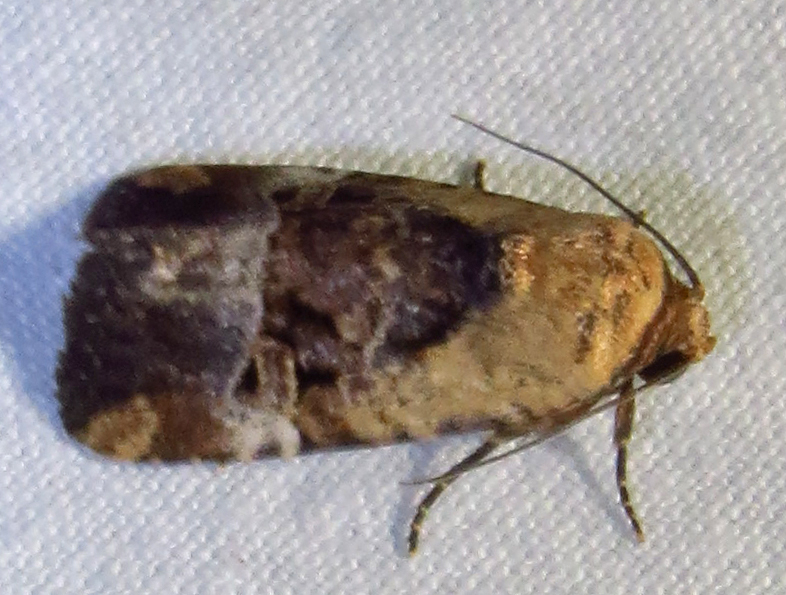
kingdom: Animalia
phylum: Arthropoda
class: Insecta
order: Lepidoptera
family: Noctuidae
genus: Elaphria
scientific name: Elaphria chalcedonia
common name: Chalcedony midget
